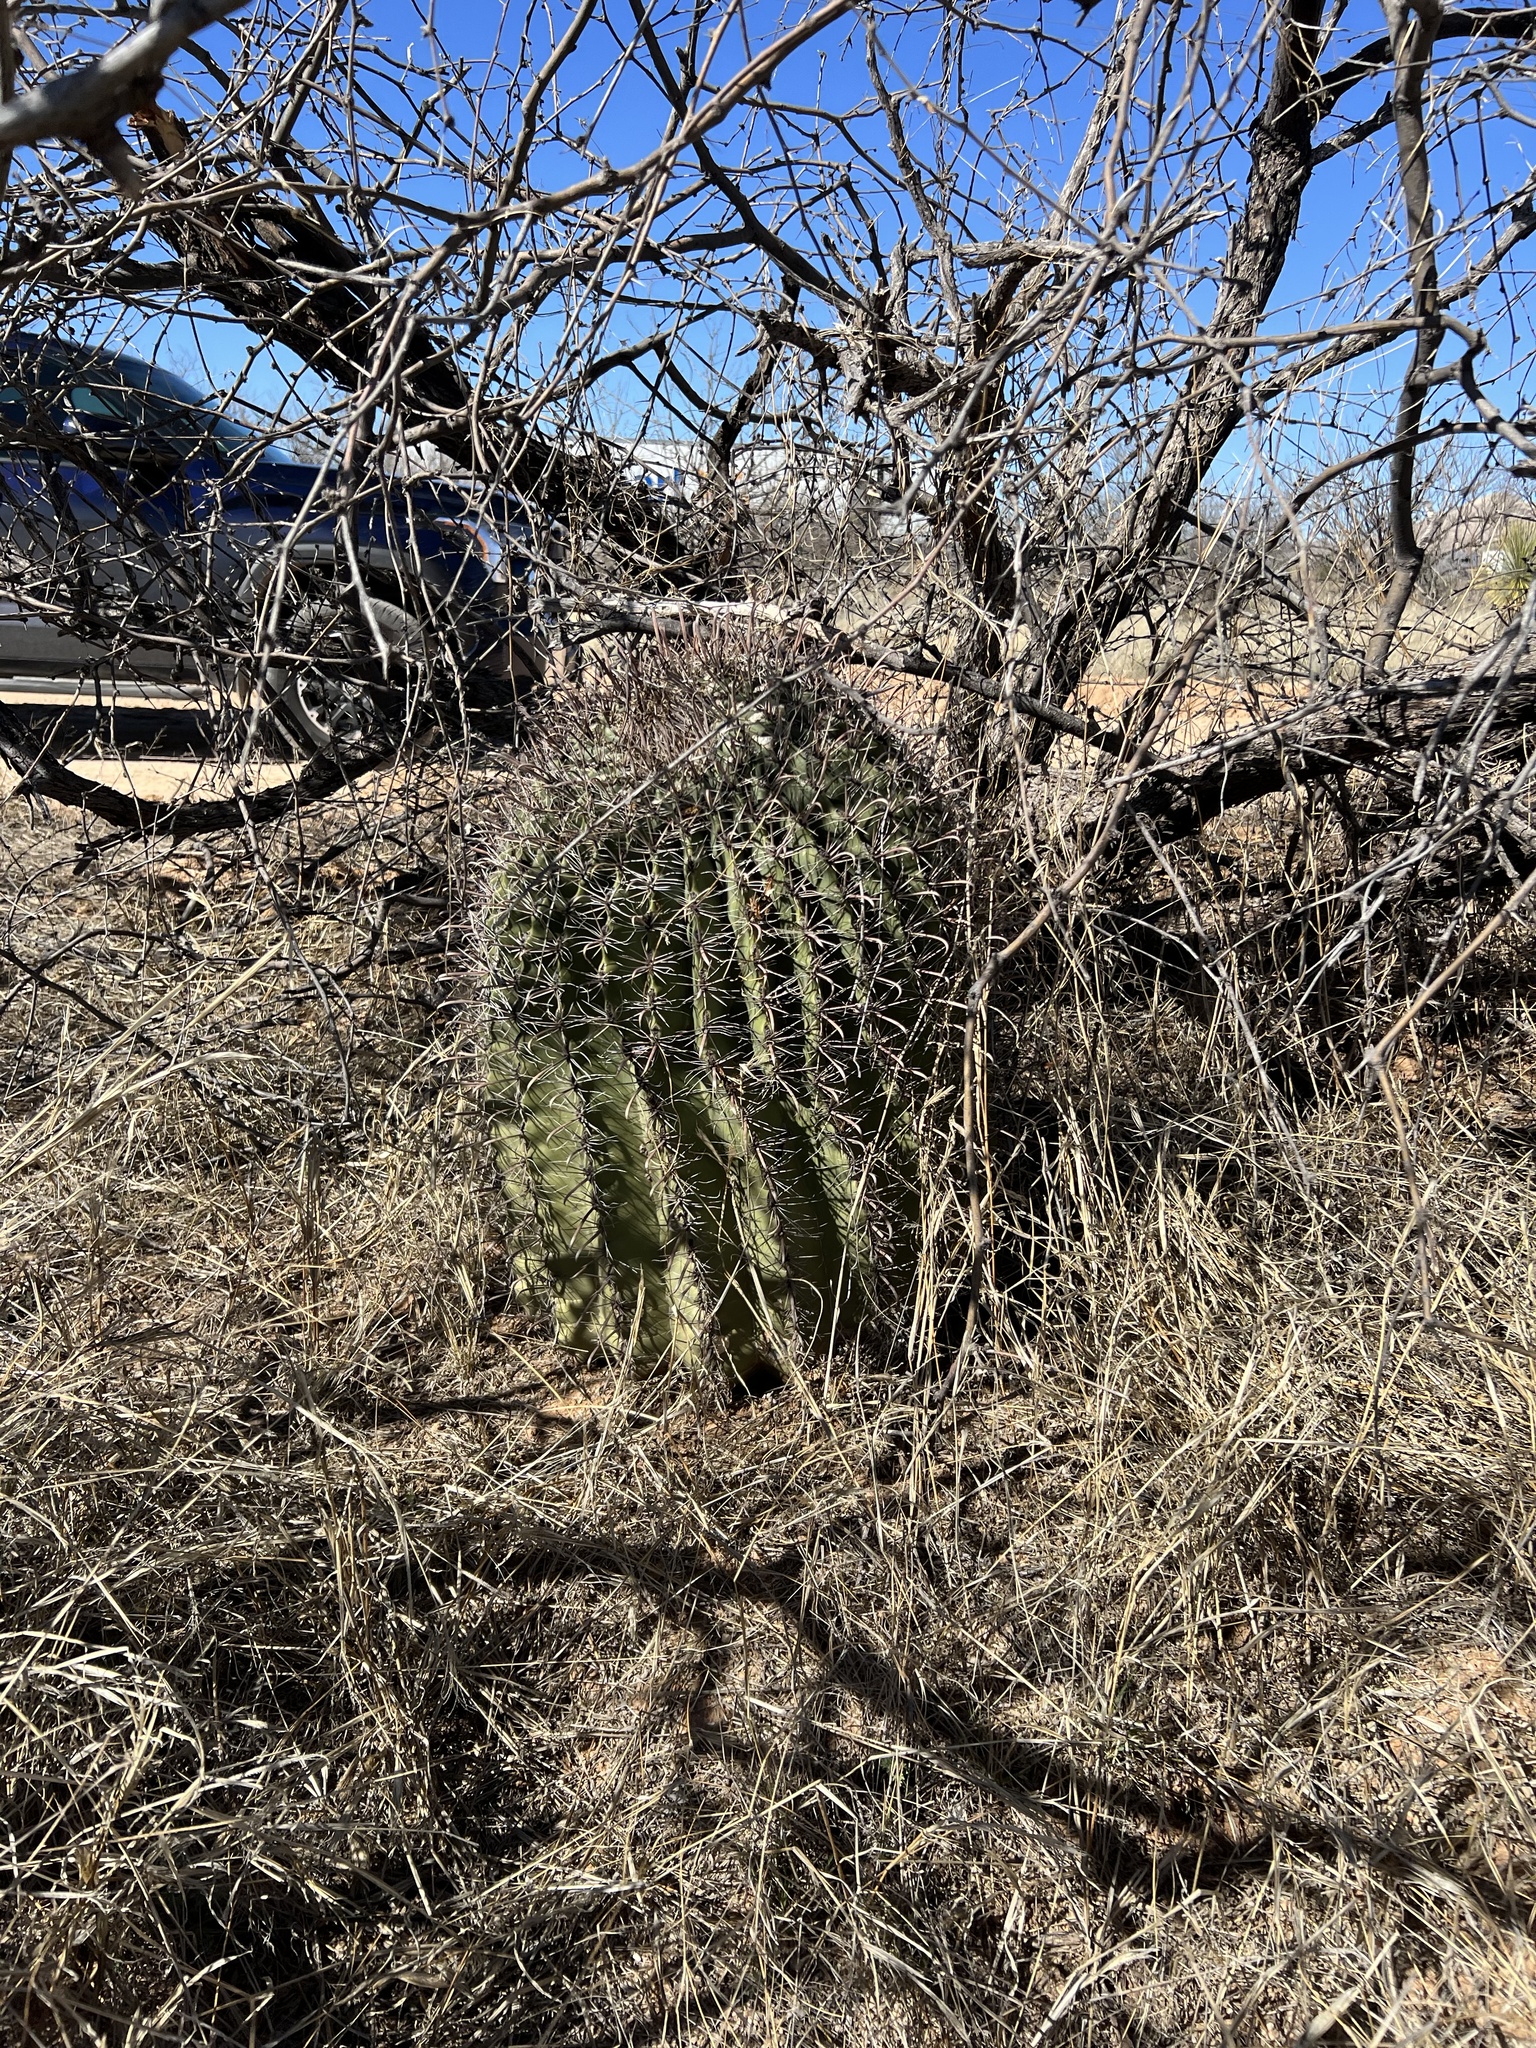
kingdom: Plantae
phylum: Tracheophyta
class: Magnoliopsida
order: Caryophyllales
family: Cactaceae
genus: Ferocactus
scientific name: Ferocactus wislizeni
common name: Candy barrel cactus
